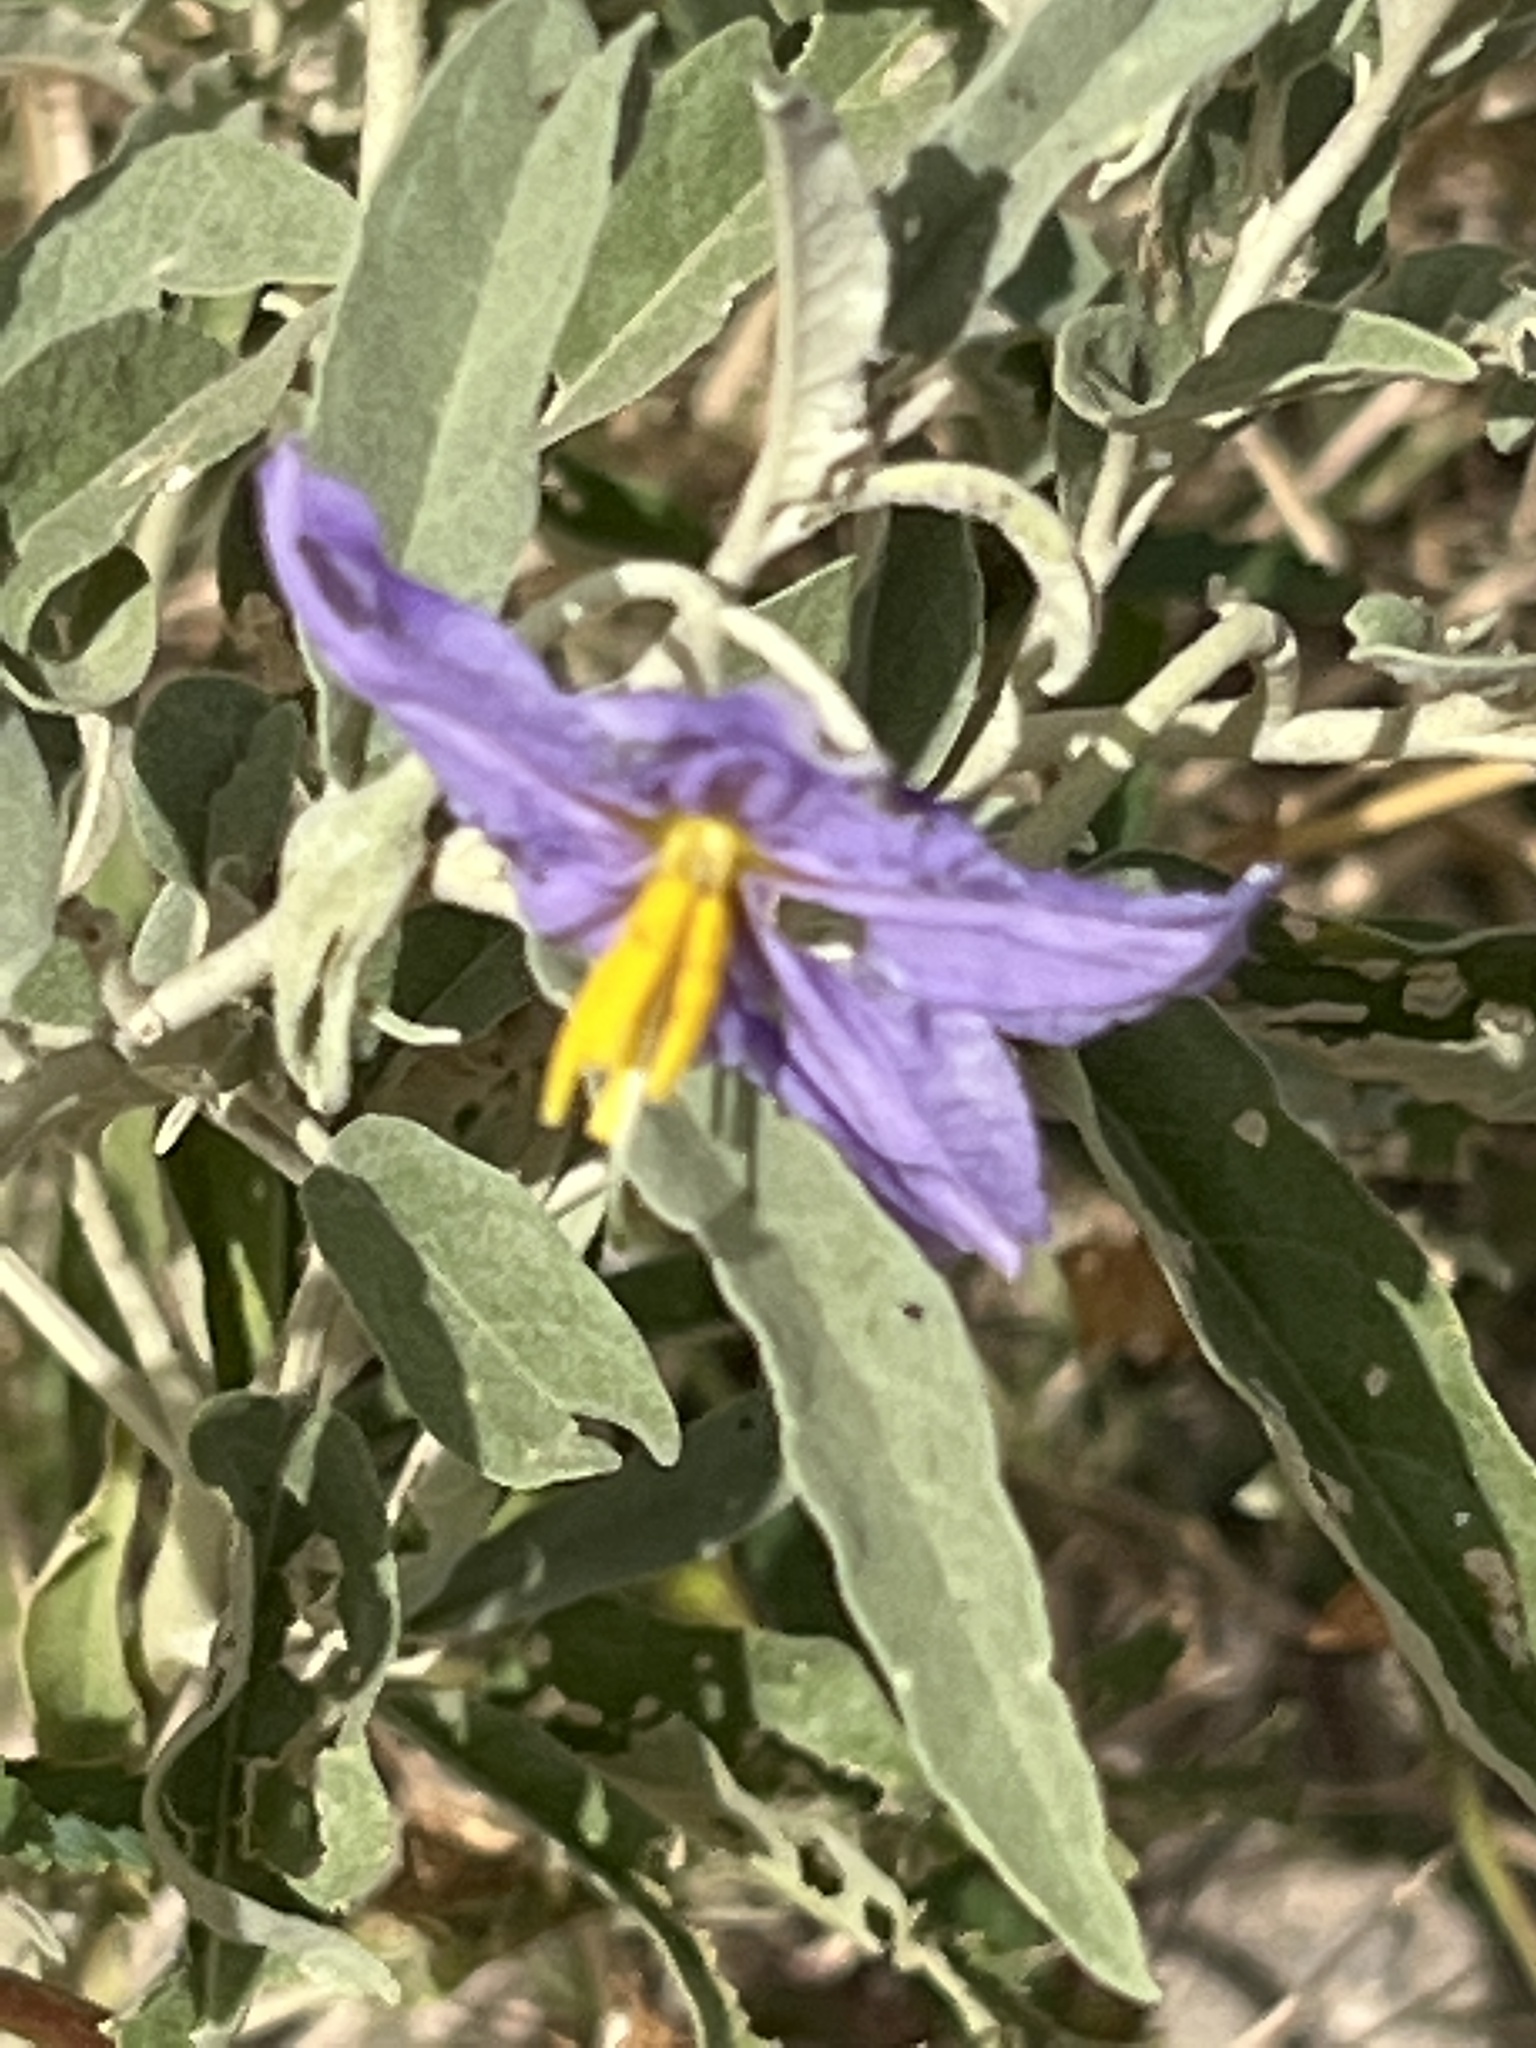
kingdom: Plantae
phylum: Tracheophyta
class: Magnoliopsida
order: Solanales
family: Solanaceae
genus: Solanum
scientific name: Solanum elaeagnifolium
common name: Silverleaf nightshade
